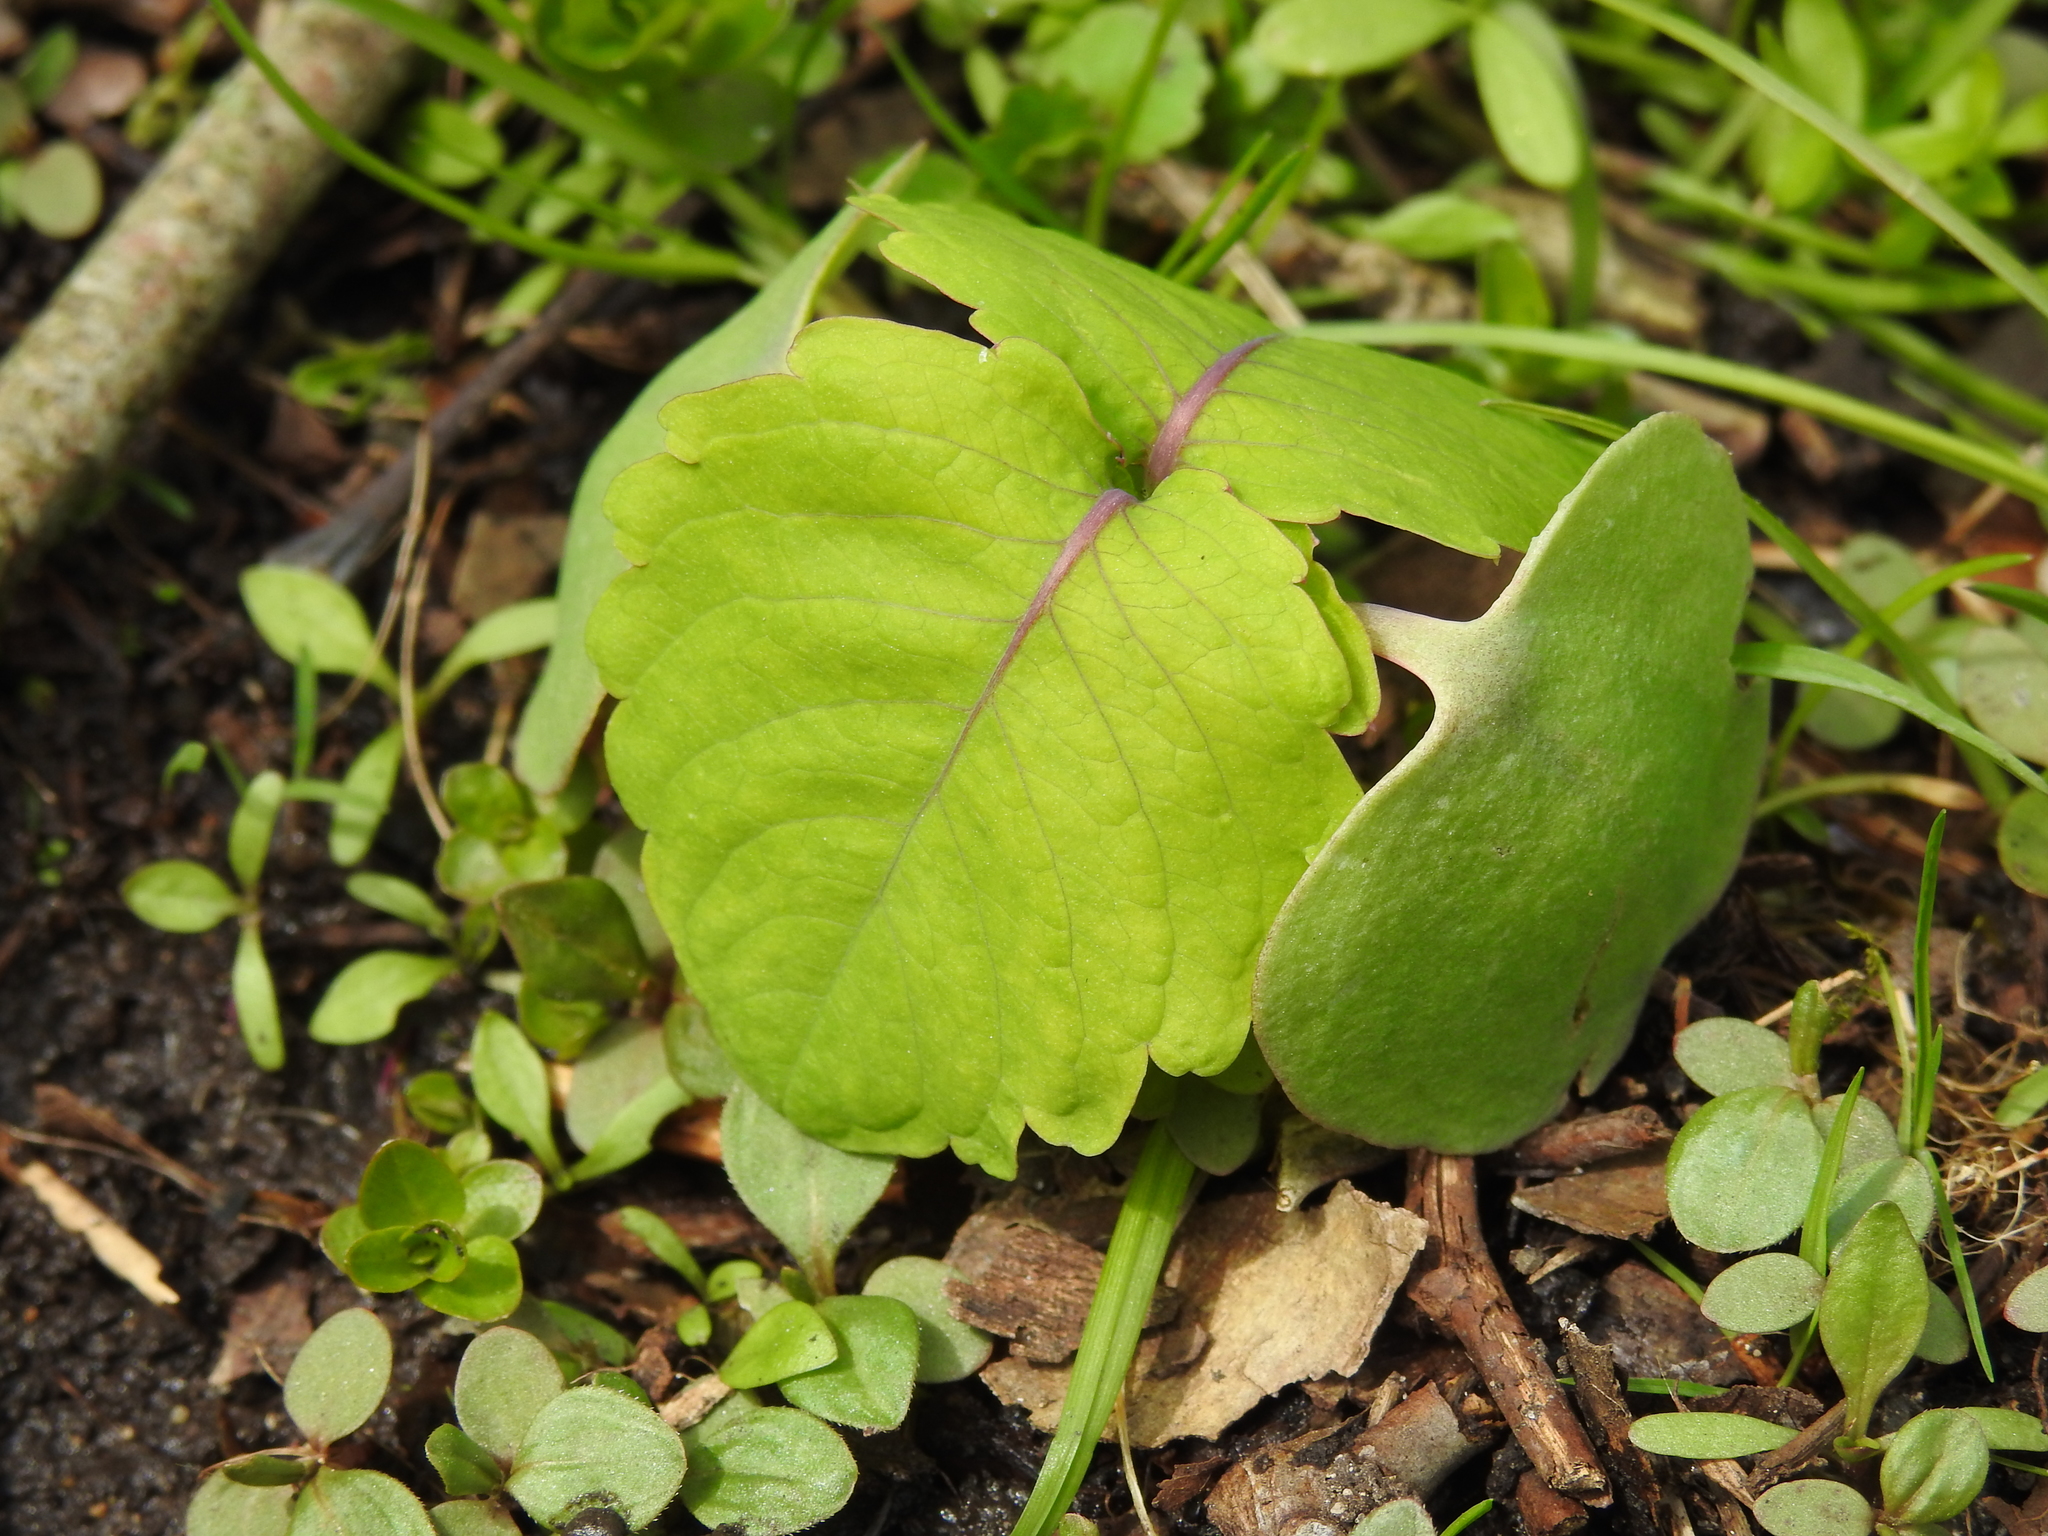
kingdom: Plantae
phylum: Tracheophyta
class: Magnoliopsida
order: Ericales
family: Balsaminaceae
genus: Impatiens
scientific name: Impatiens
